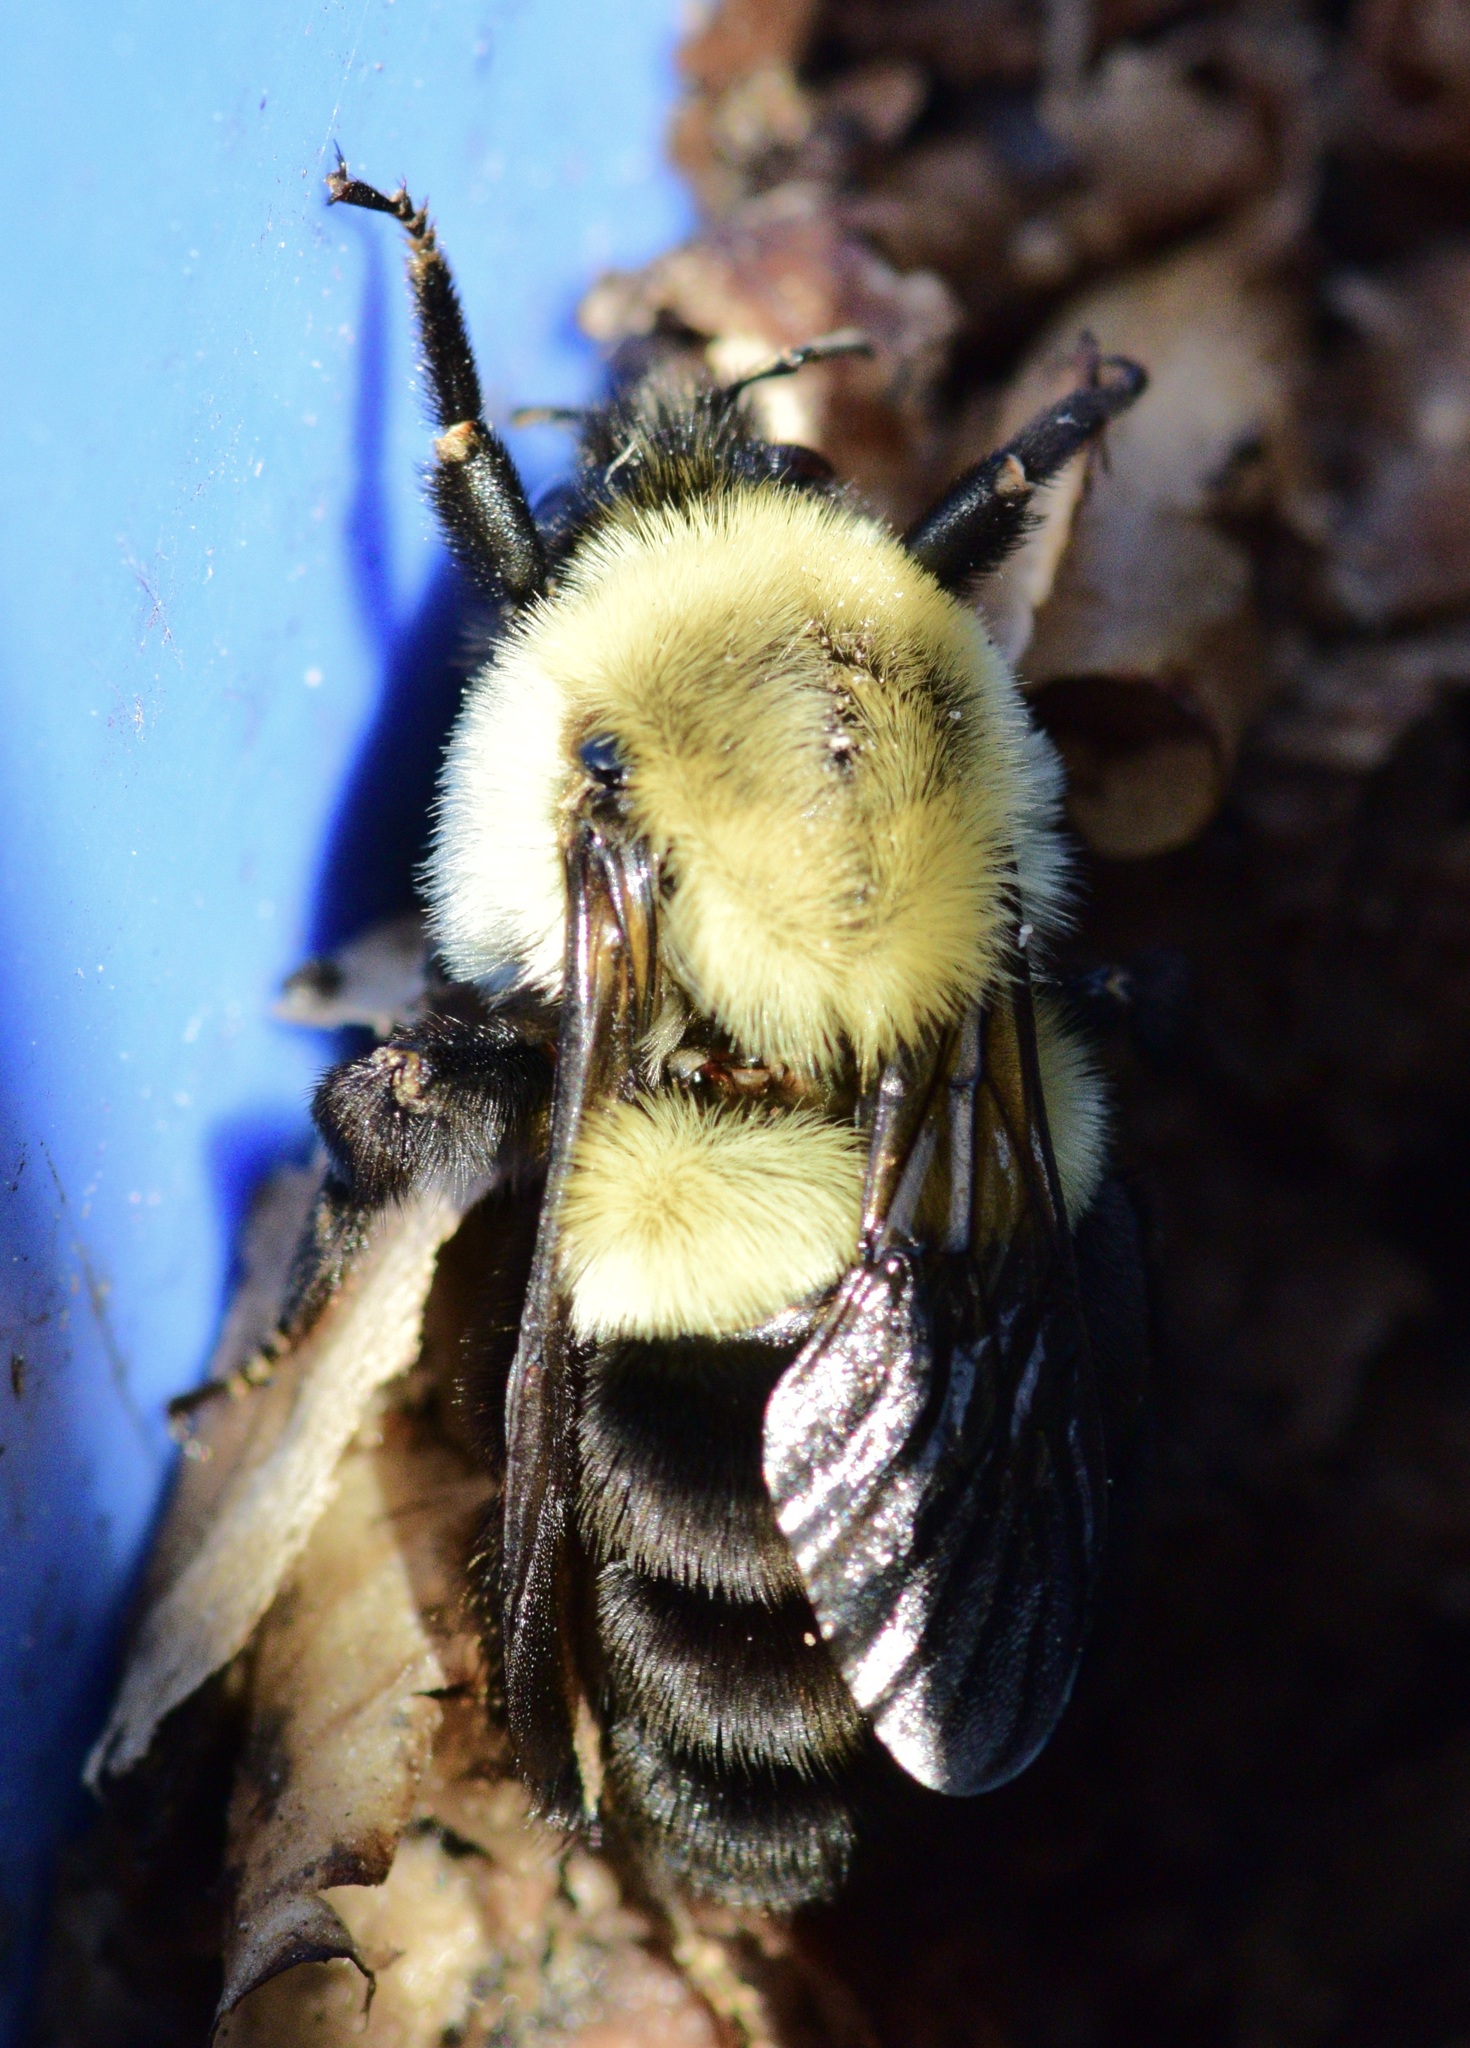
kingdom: Animalia
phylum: Arthropoda
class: Insecta
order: Hymenoptera
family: Apidae
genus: Bombus
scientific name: Bombus impatiens
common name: Common eastern bumble bee
